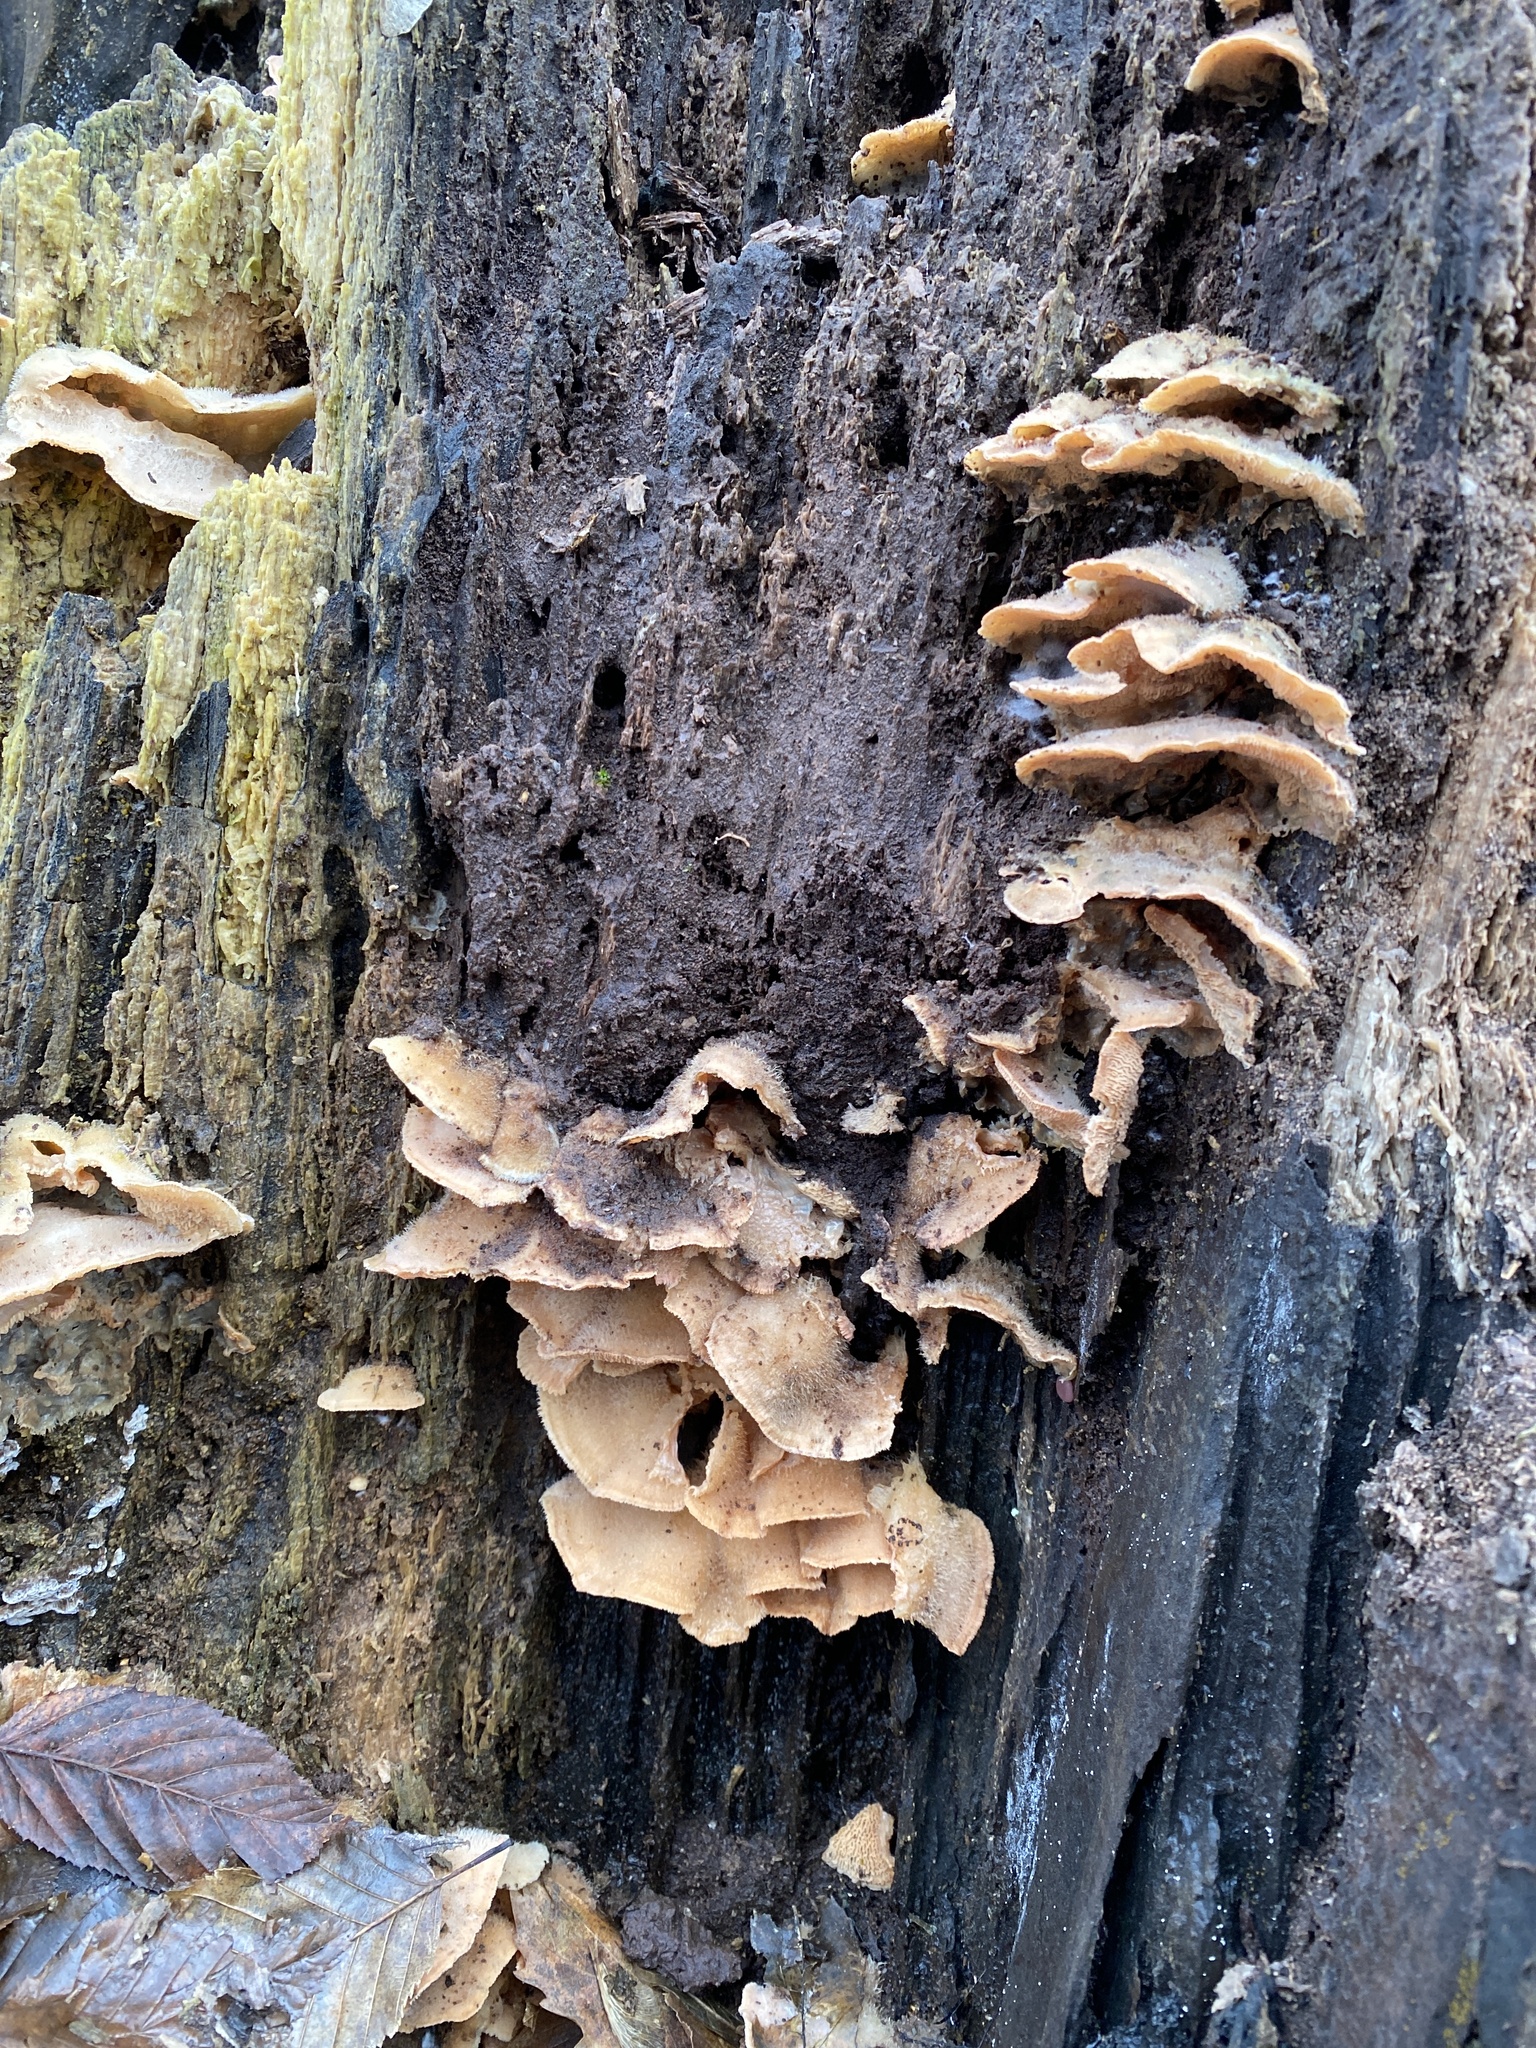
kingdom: Fungi
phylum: Basidiomycota
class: Agaricomycetes
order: Polyporales
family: Meruliaceae
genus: Phlebia
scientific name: Phlebia tremellosa
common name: Jelly rot
